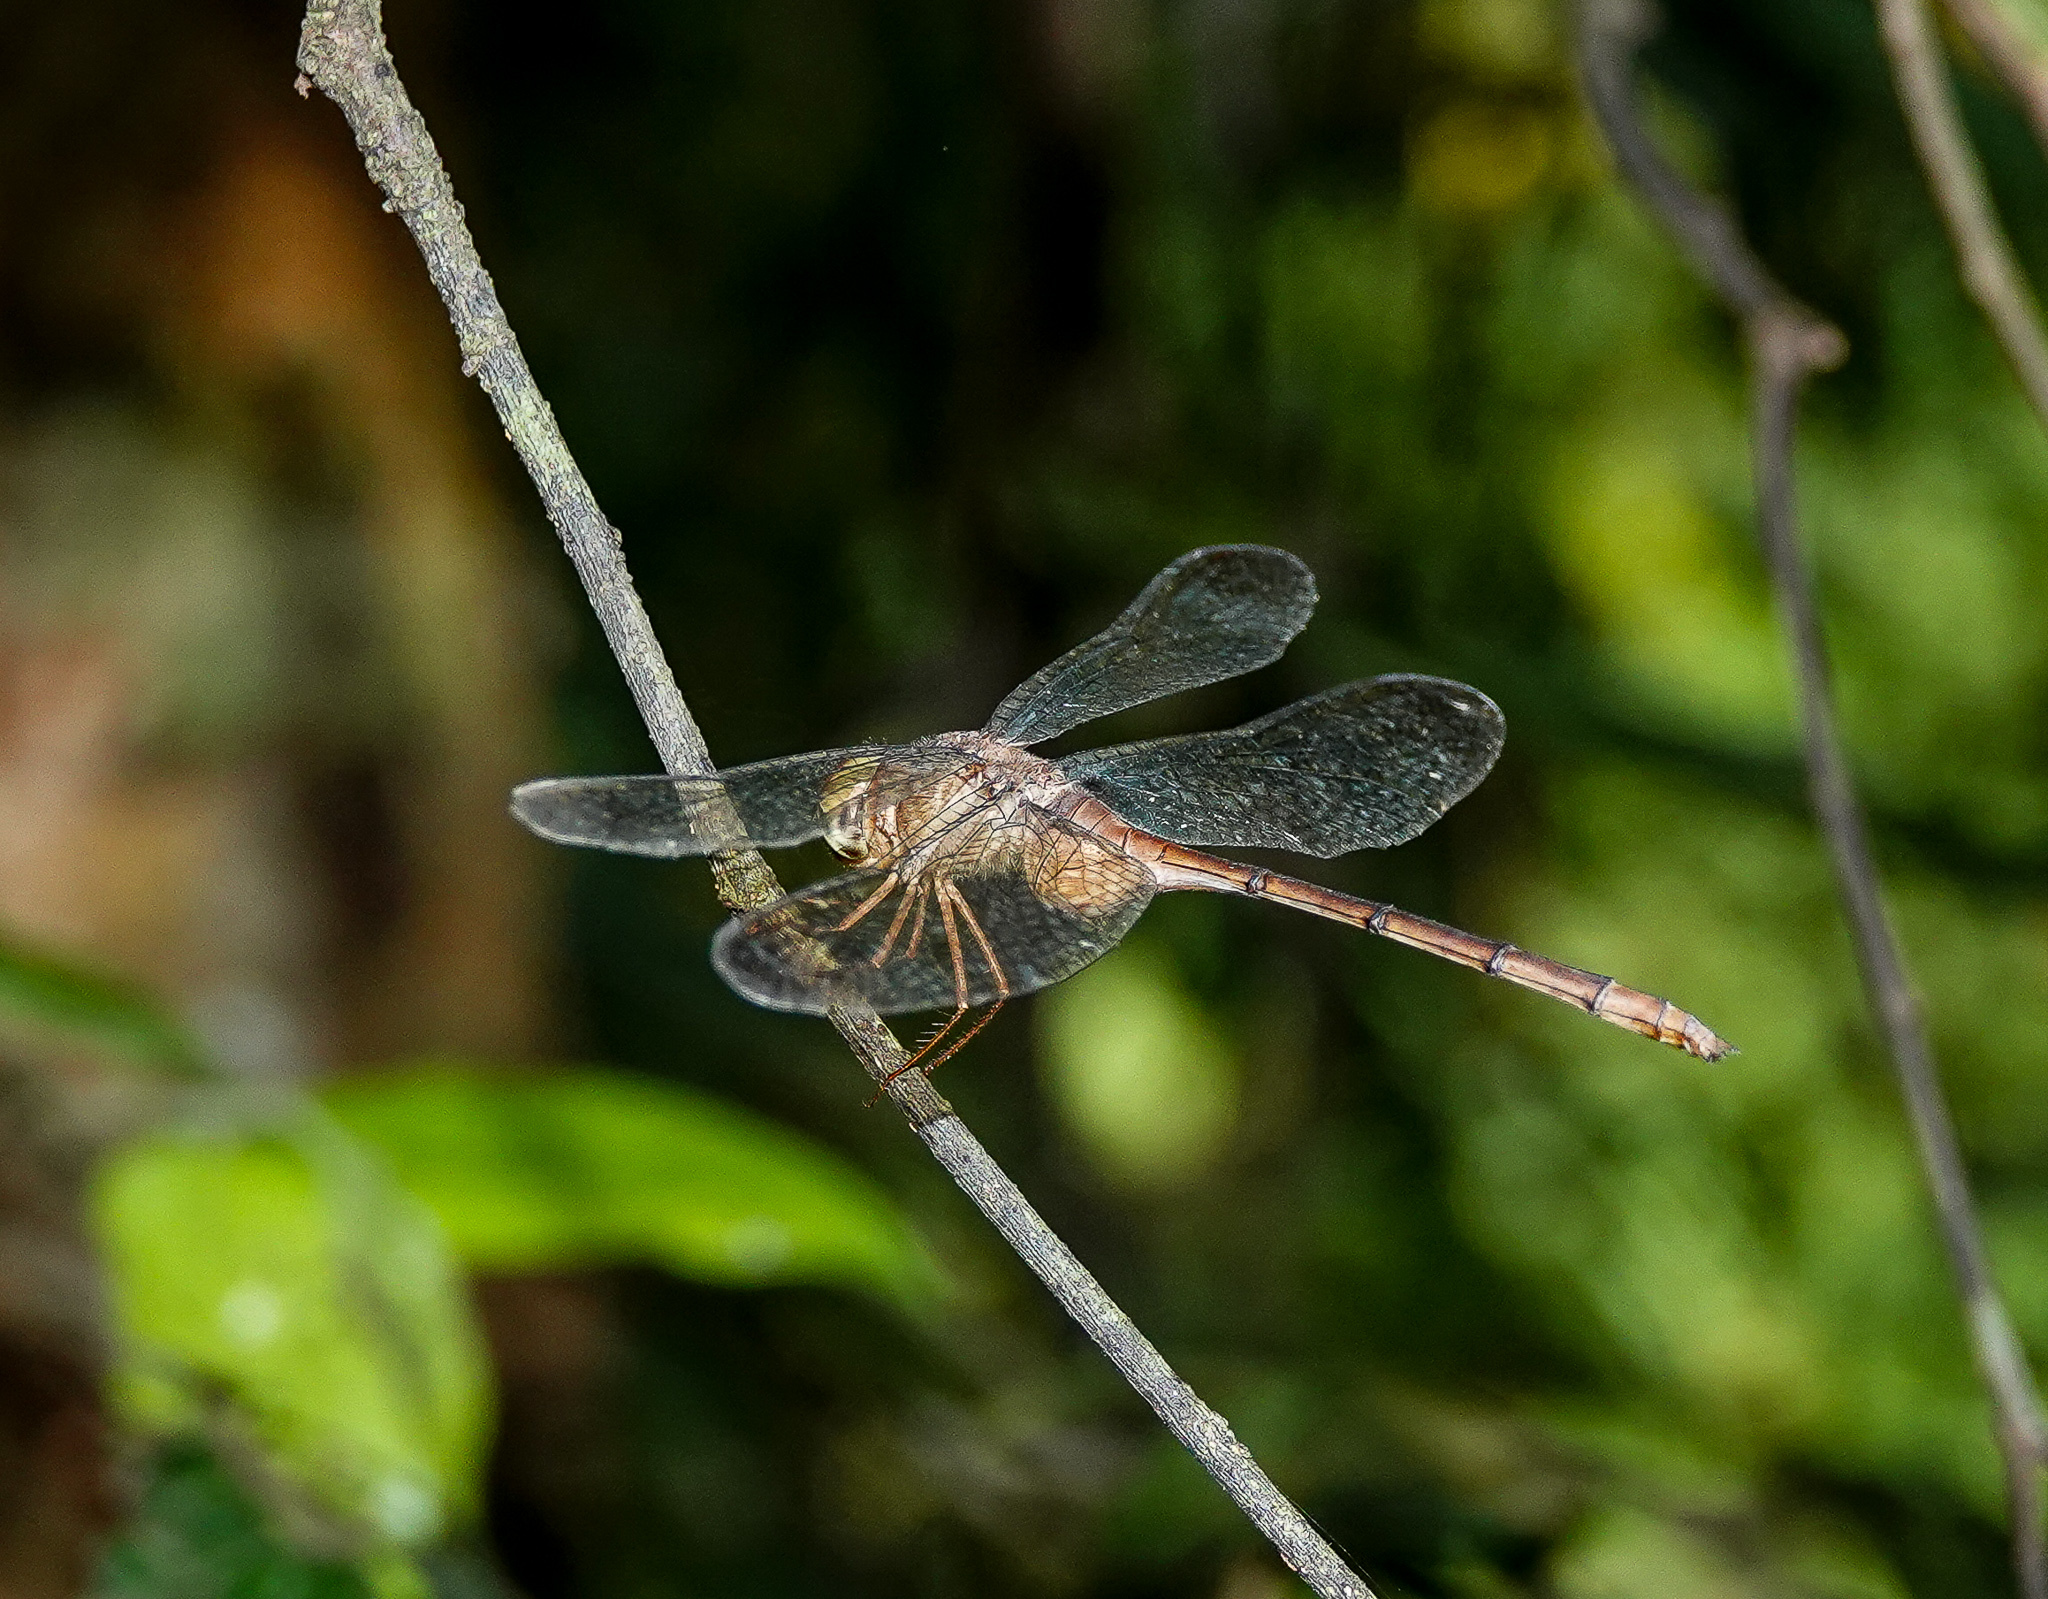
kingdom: Animalia
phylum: Arthropoda
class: Insecta
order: Odonata
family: Libellulidae
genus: Zyxomma
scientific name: Zyxomma petiolatum
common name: Dingy dusk-darter
